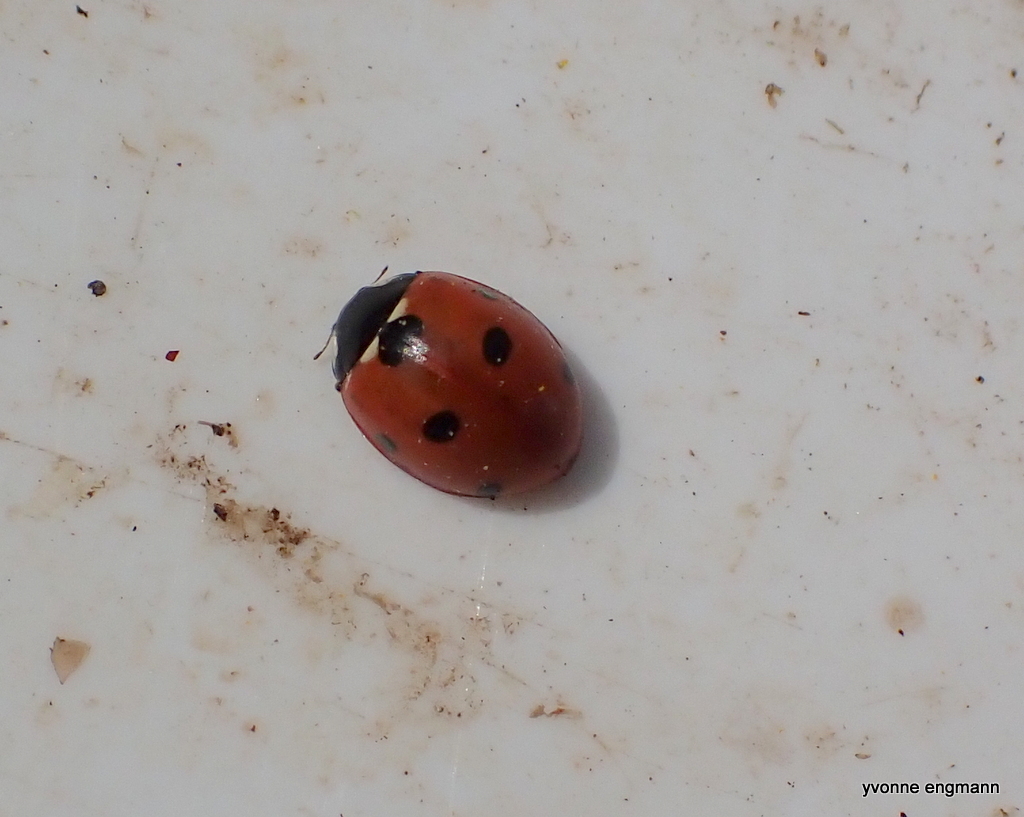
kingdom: Animalia
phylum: Arthropoda
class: Insecta
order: Coleoptera
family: Coccinellidae
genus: Coccinella
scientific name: Coccinella septempunctata
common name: Sevenspotted lady beetle
